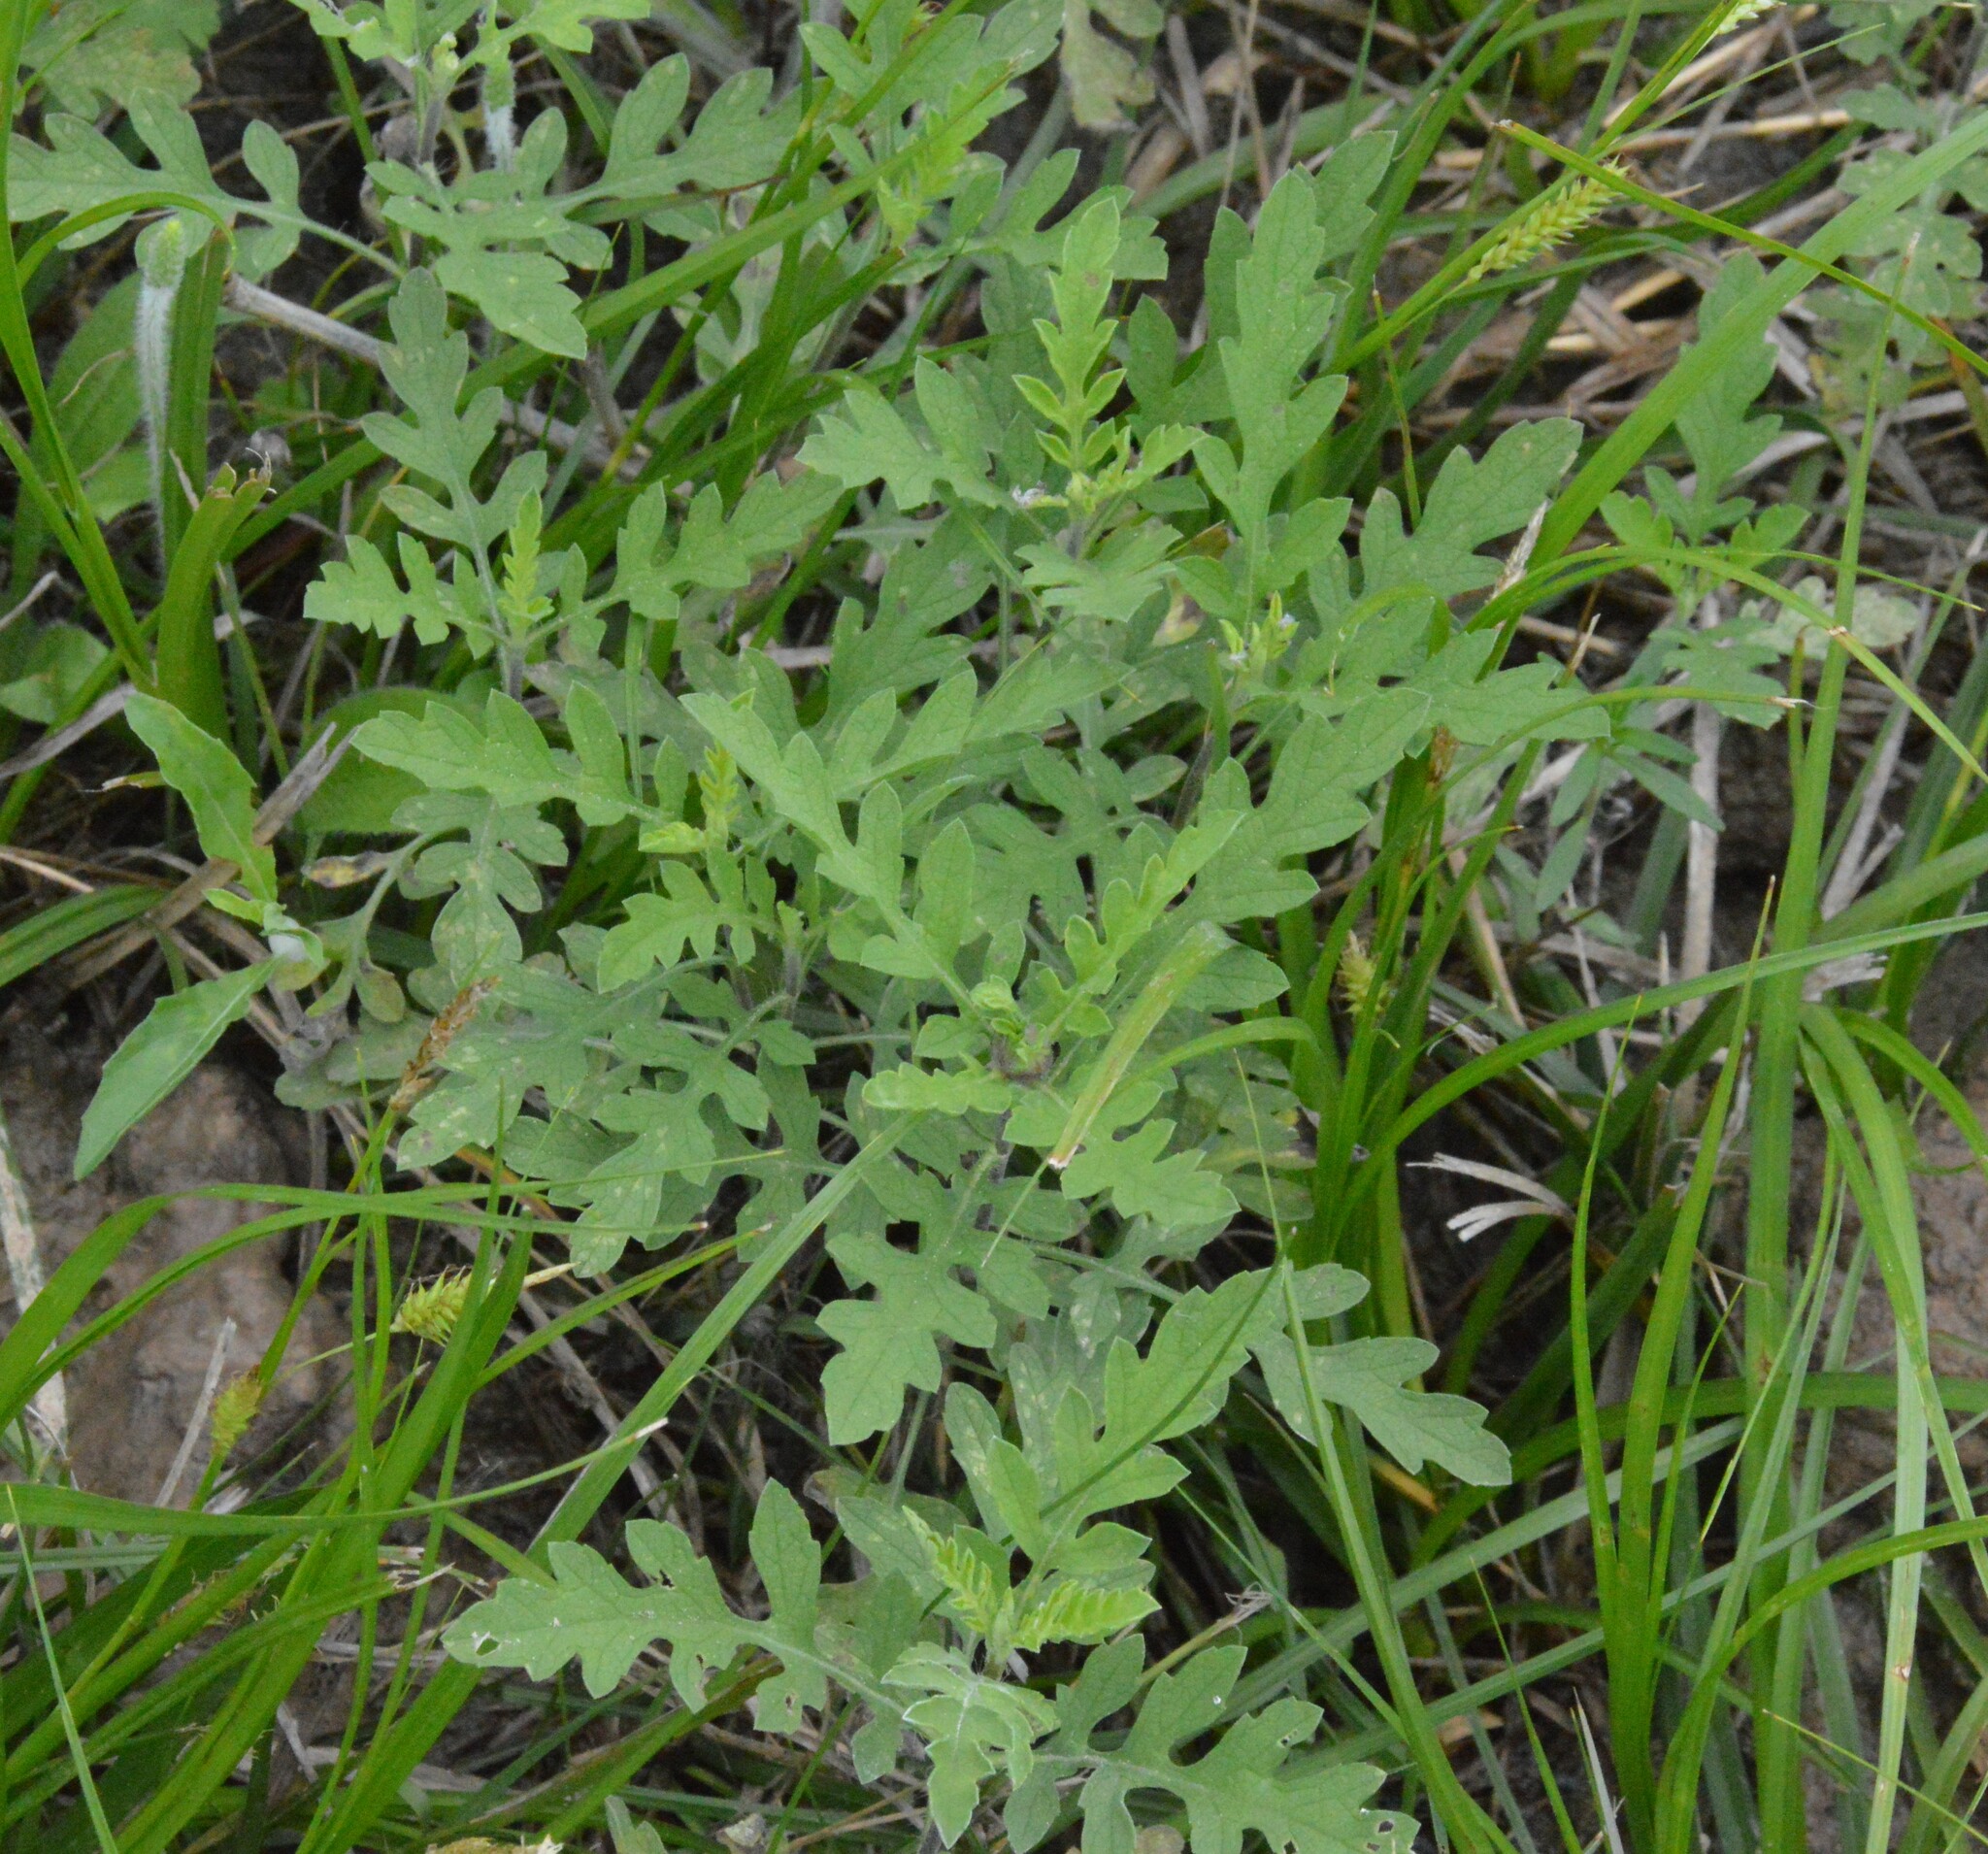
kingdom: Plantae
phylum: Tracheophyta
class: Magnoliopsida
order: Asterales
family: Asteraceae
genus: Ambrosia
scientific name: Ambrosia psilostachya
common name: Perennial ragweed
